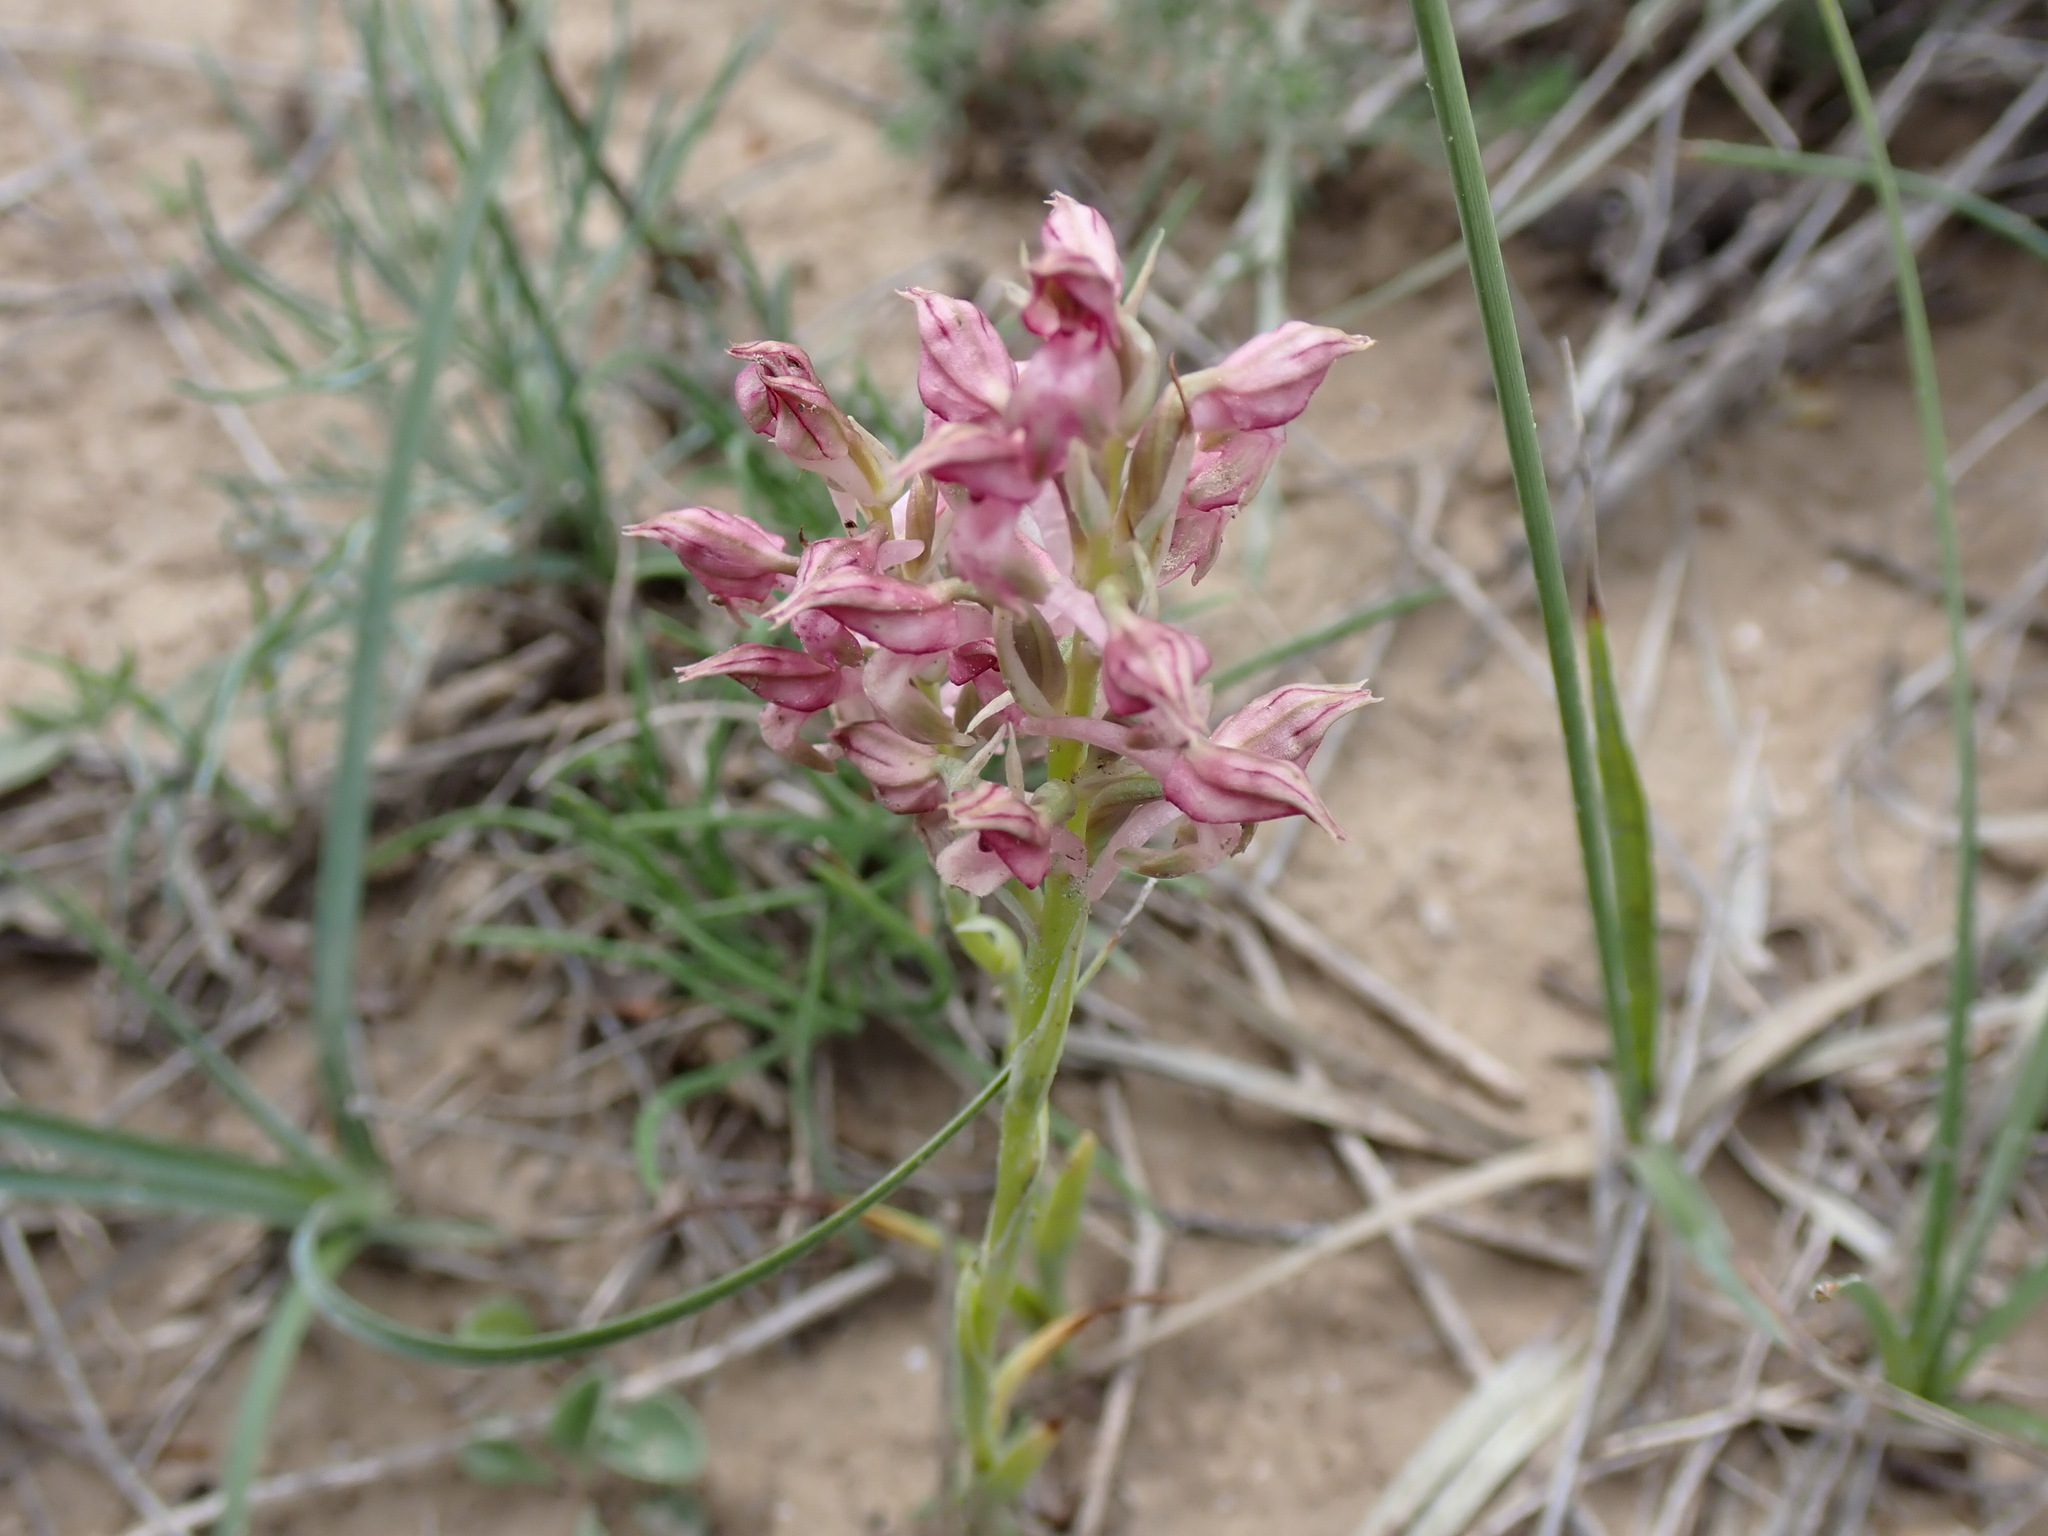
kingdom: Plantae
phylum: Tracheophyta
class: Liliopsida
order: Asparagales
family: Orchidaceae
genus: Anacamptis
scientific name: Anacamptis coriophora
